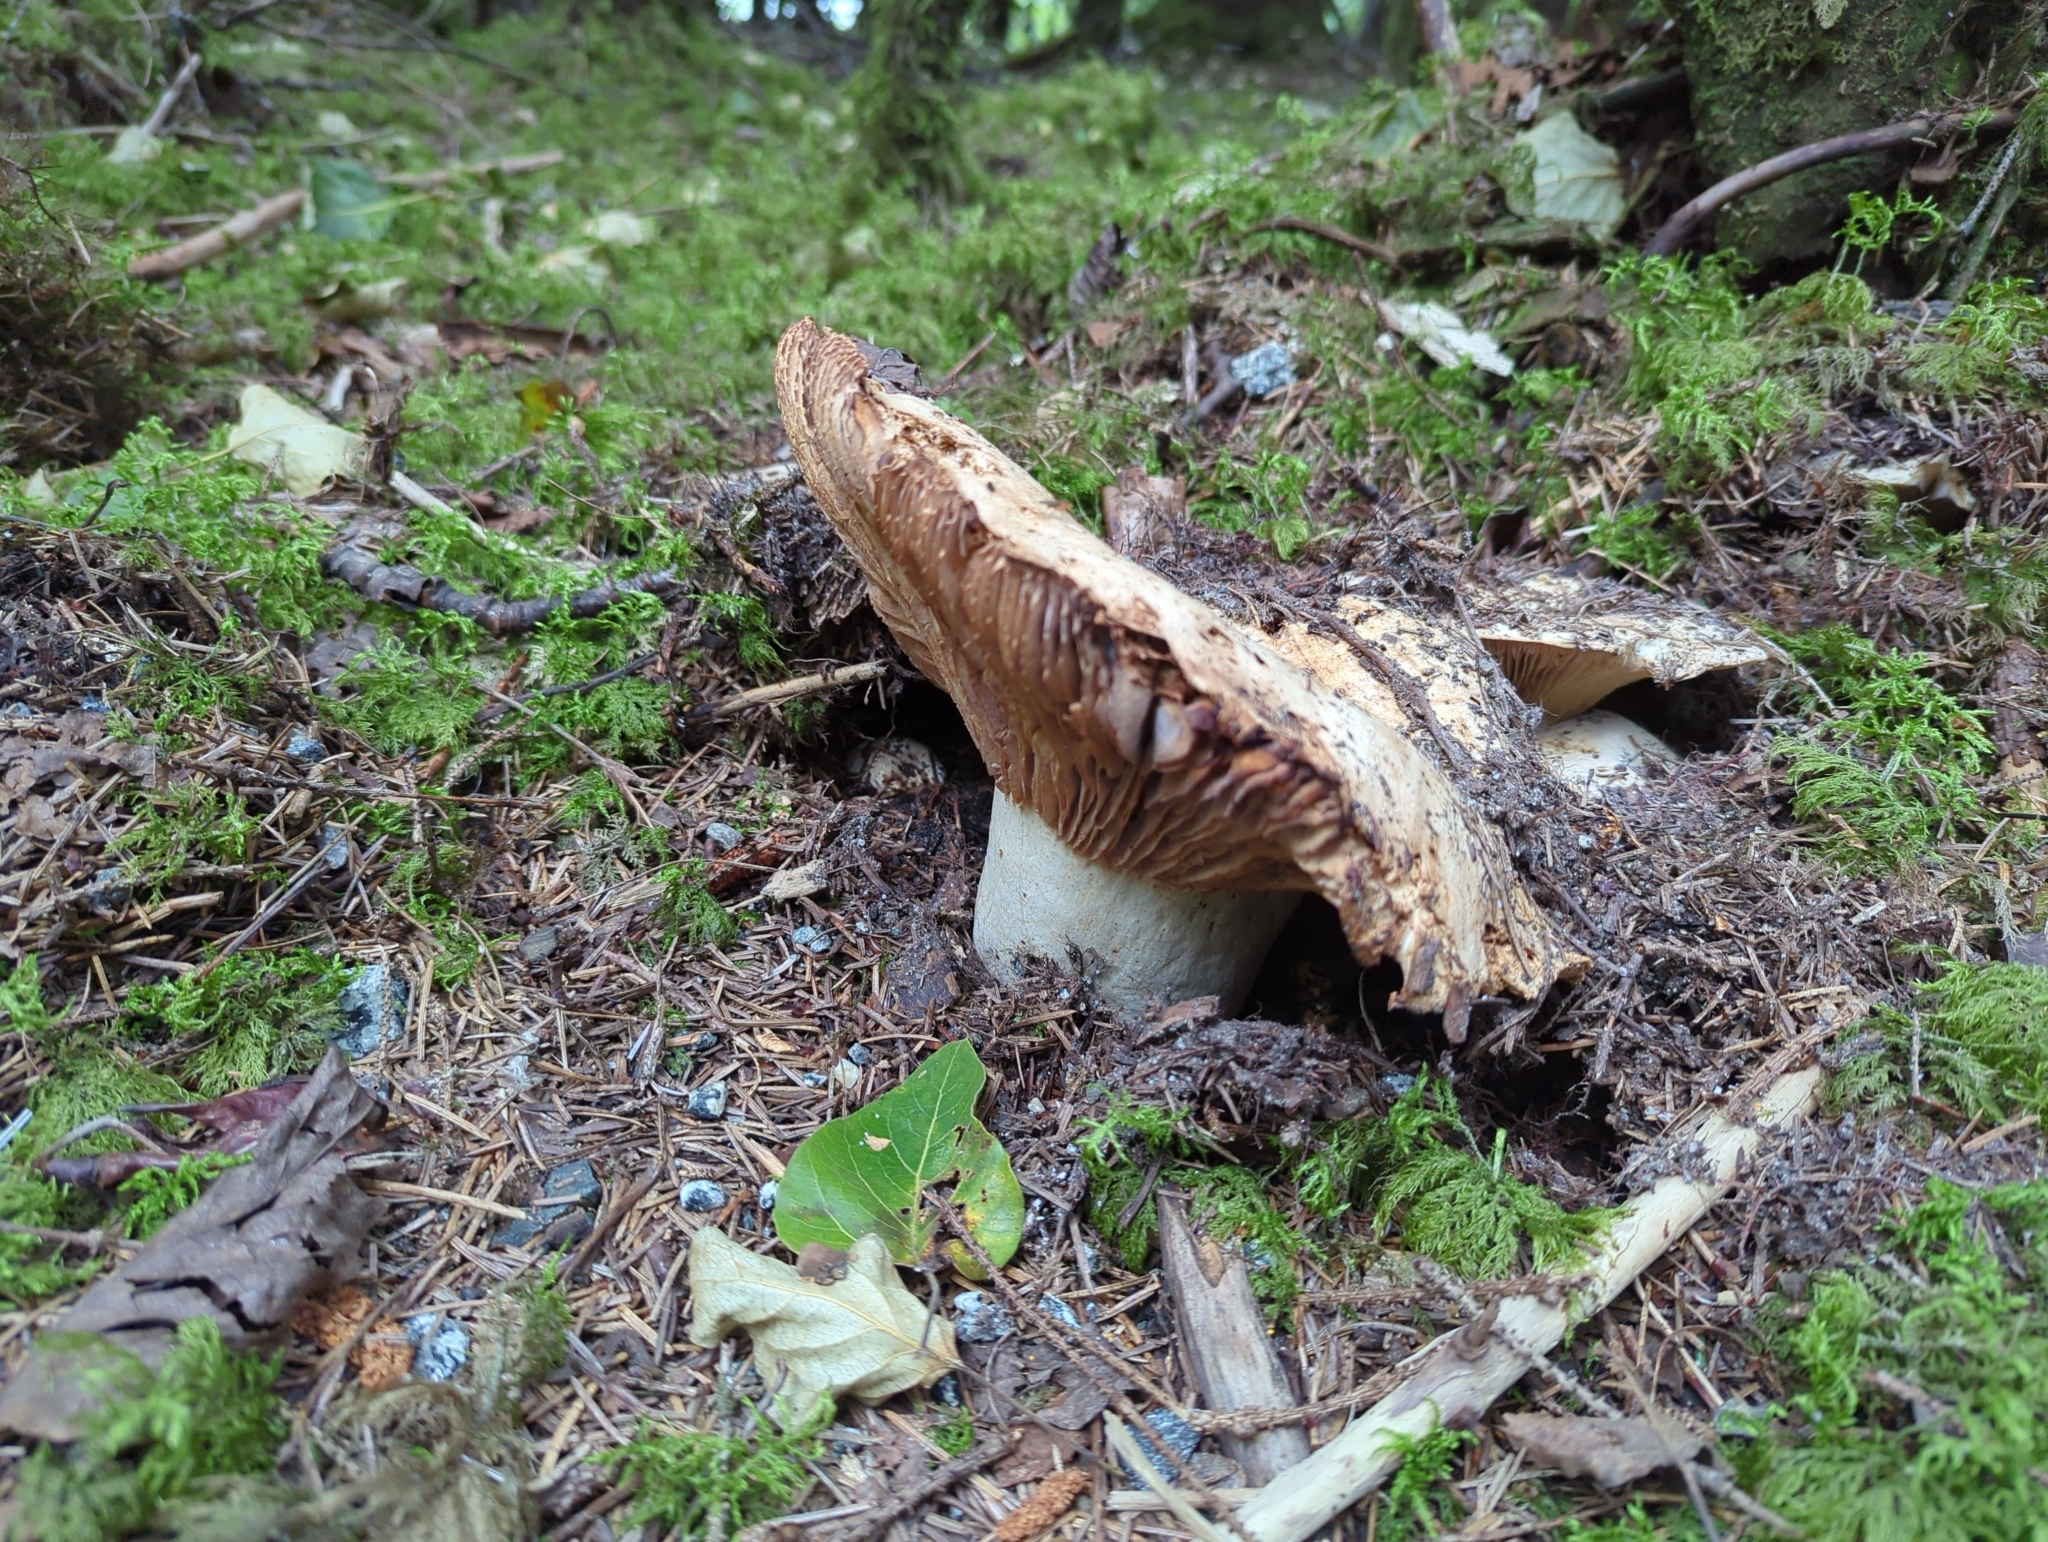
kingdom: Fungi
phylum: Basidiomycota
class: Agaricomycetes
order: Russulales
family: Russulaceae
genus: Russula
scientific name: Russula brevipes
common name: Short-stemmed russula
